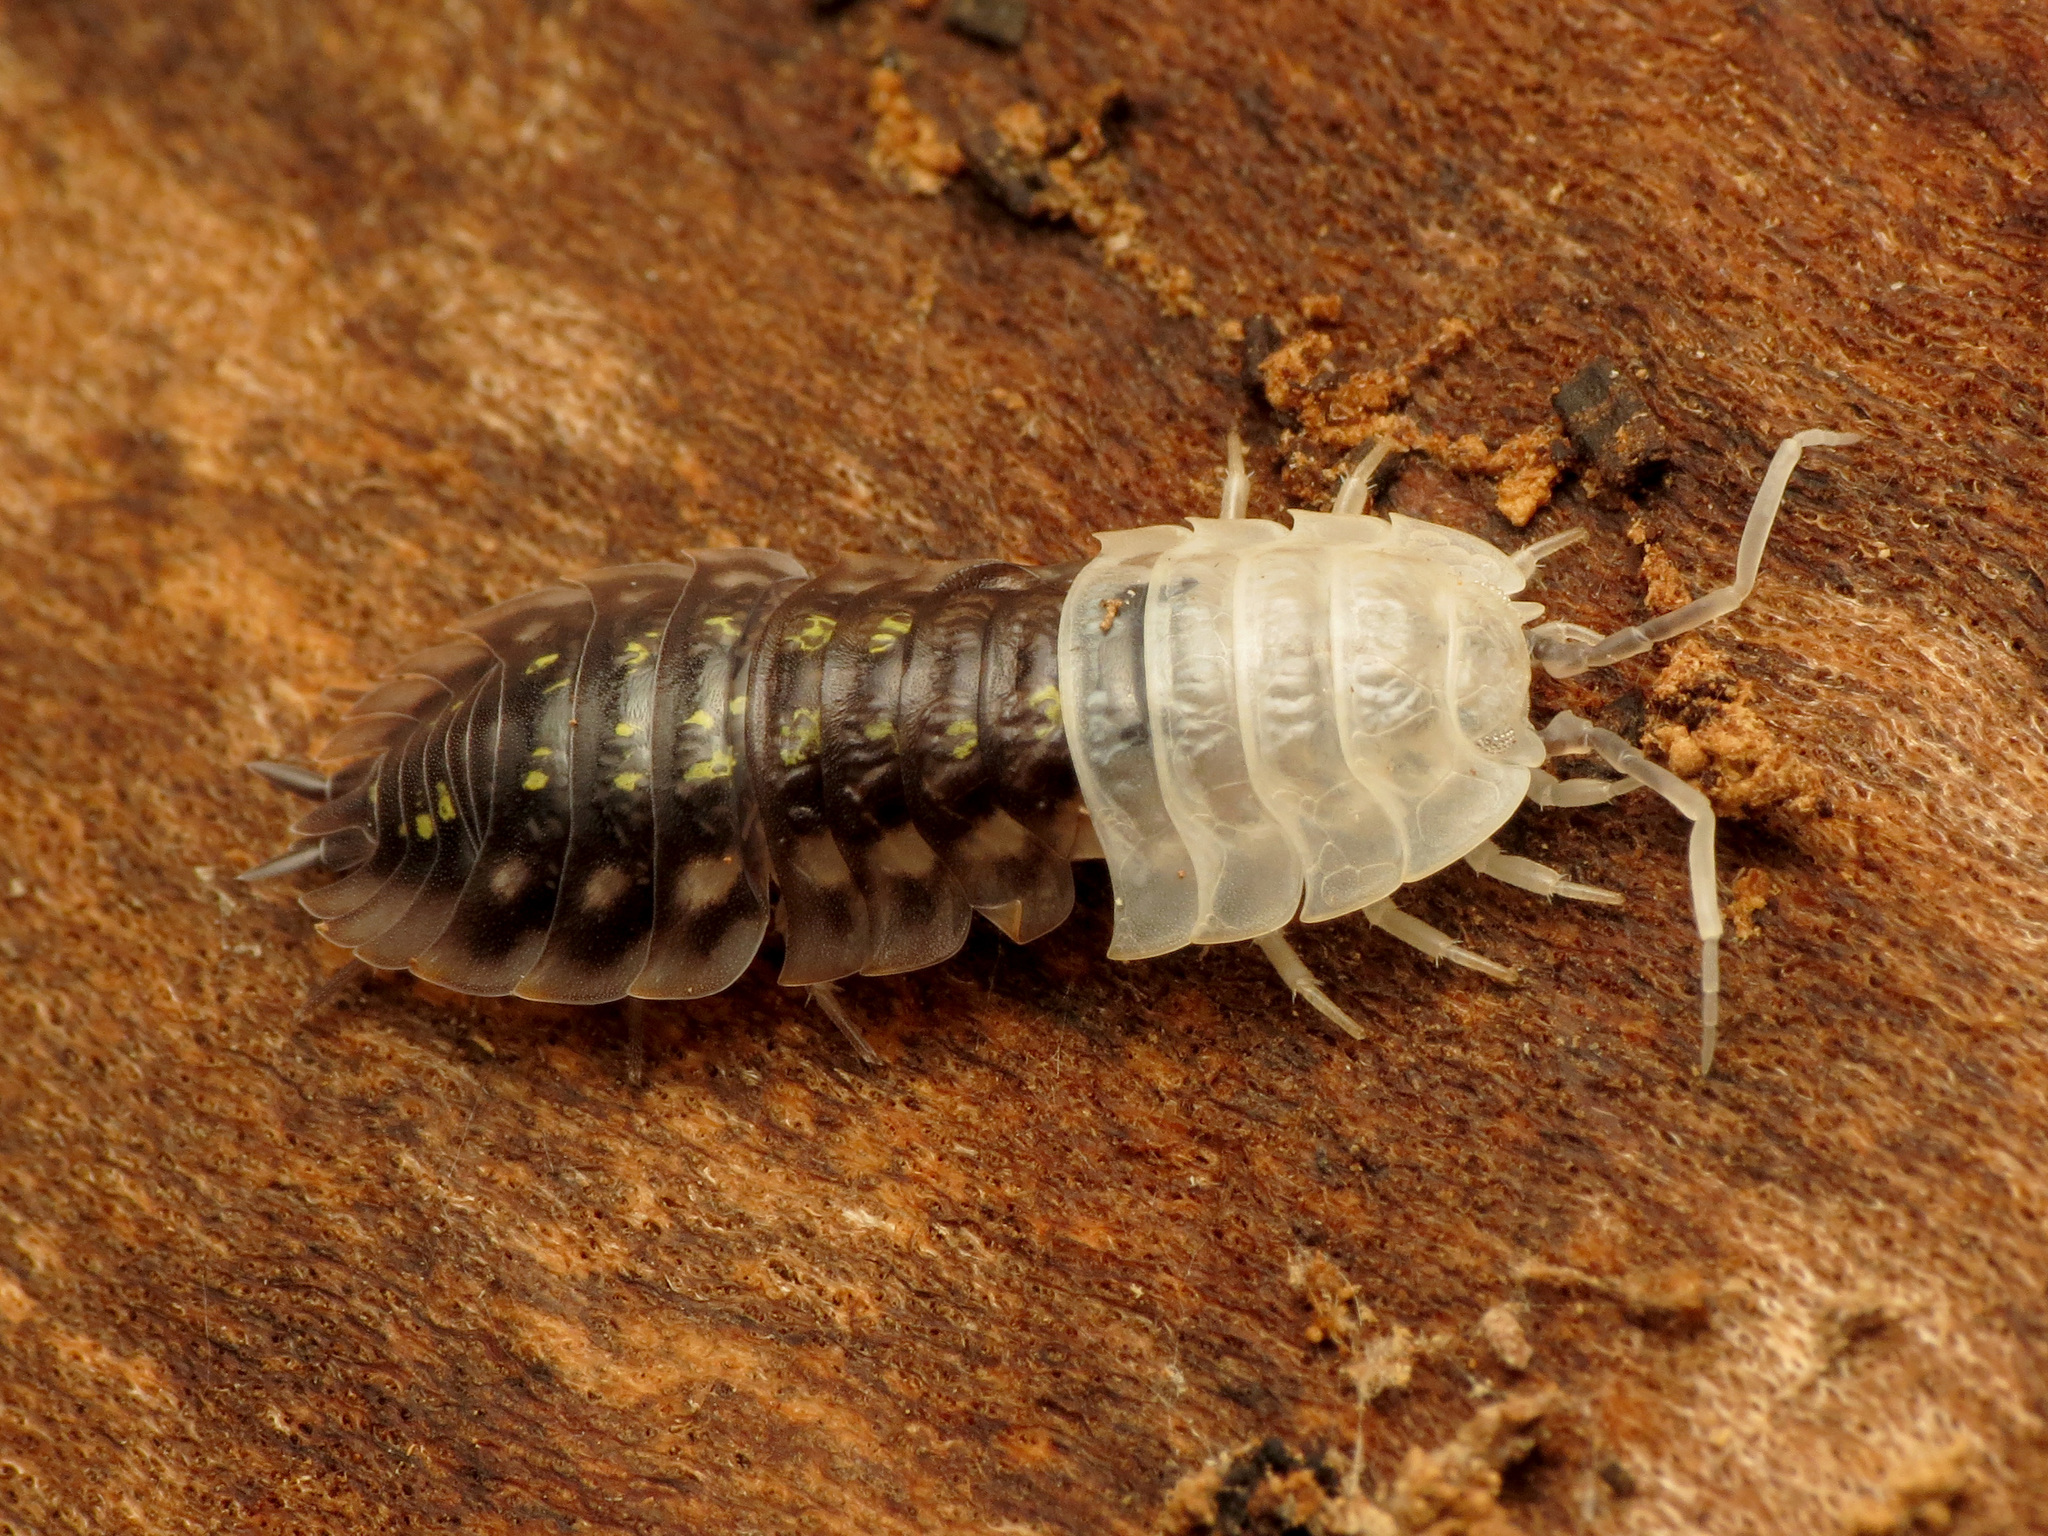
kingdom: Animalia
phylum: Arthropoda
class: Malacostraca
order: Isopoda
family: Oniscidae
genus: Oniscus
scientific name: Oniscus asellus
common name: Common shiny woodlouse
